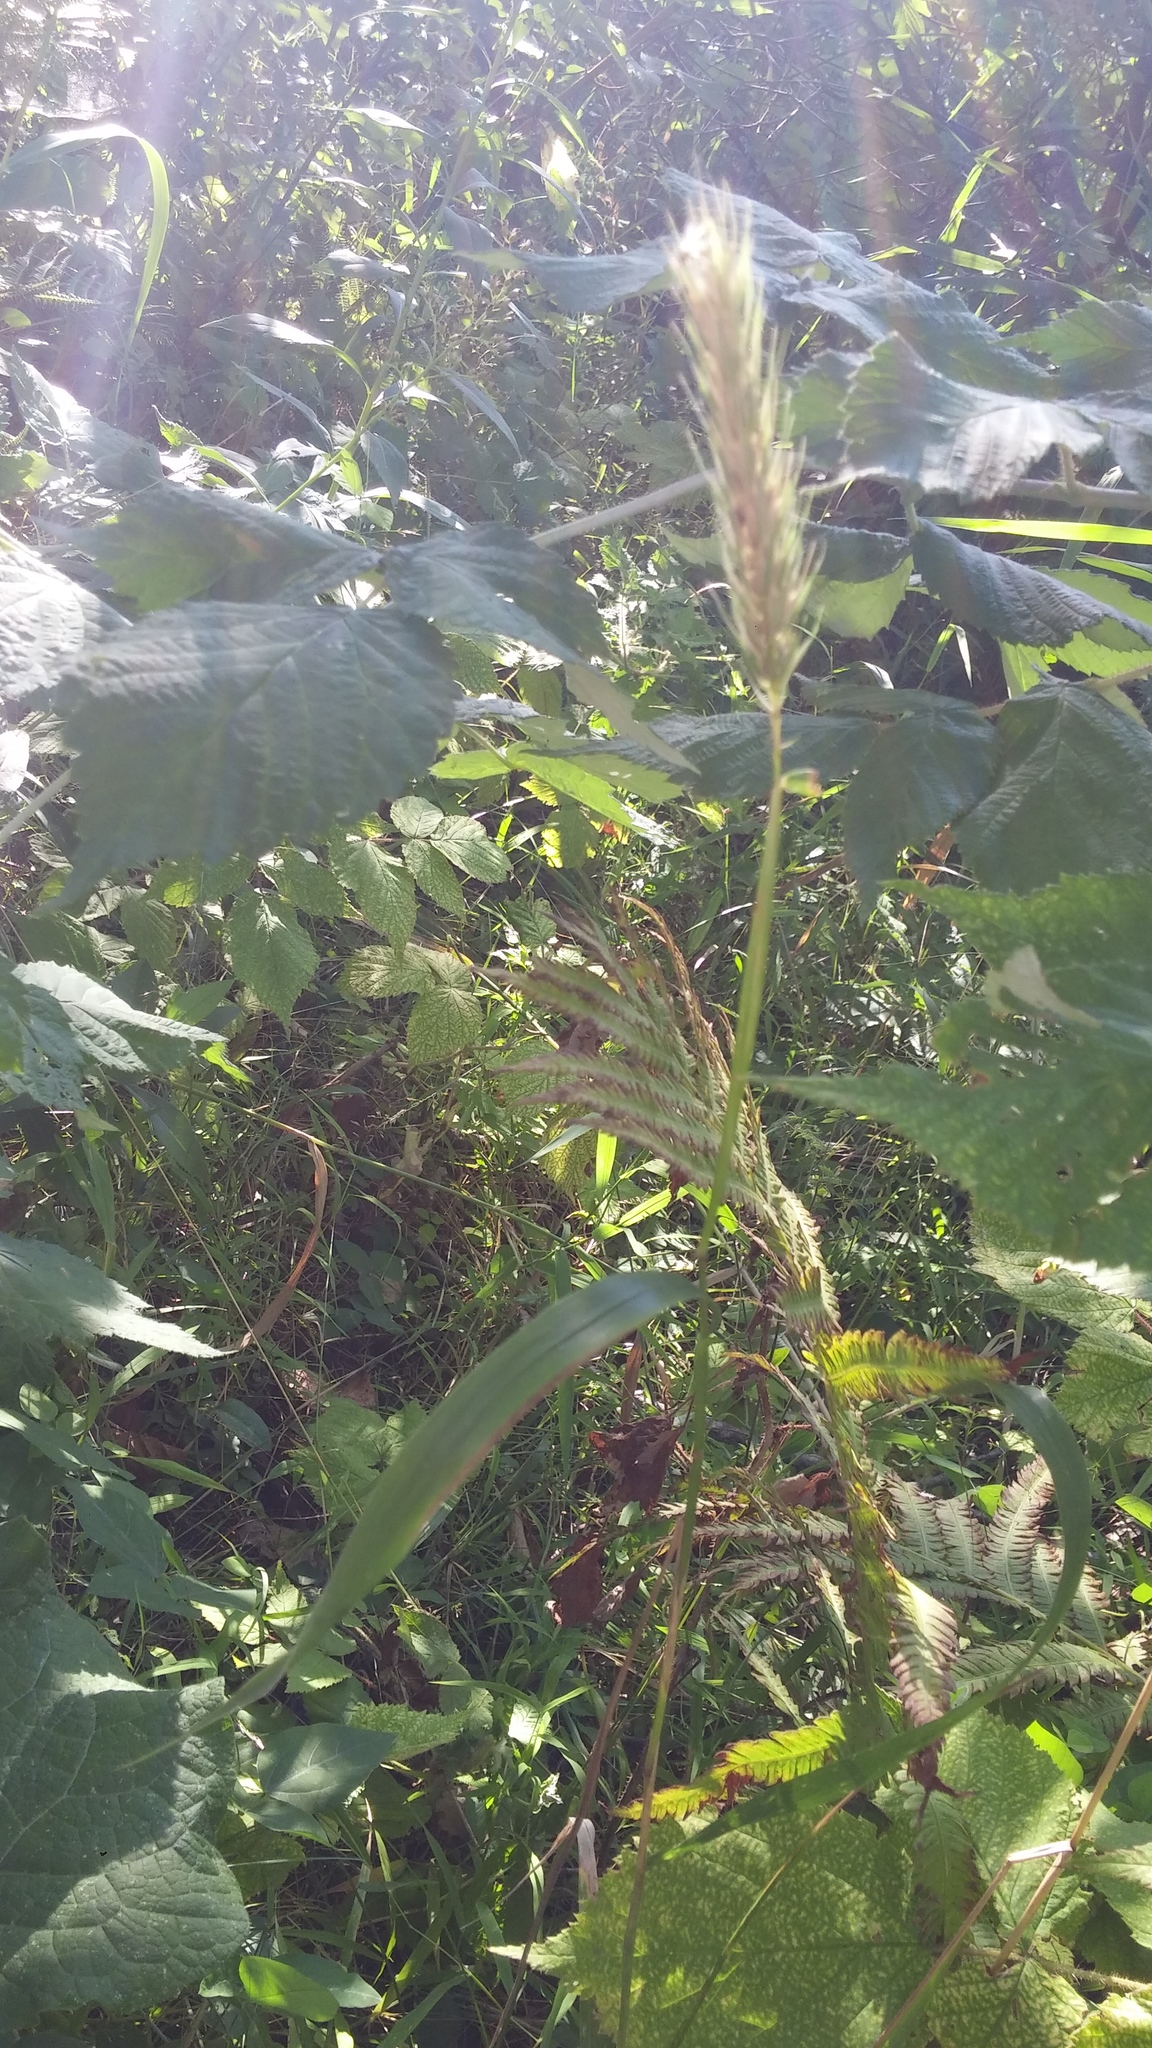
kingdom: Plantae
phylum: Tracheophyta
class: Liliopsida
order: Poales
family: Poaceae
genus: Elymus
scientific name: Elymus virginicus
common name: Common eastern wildrye
